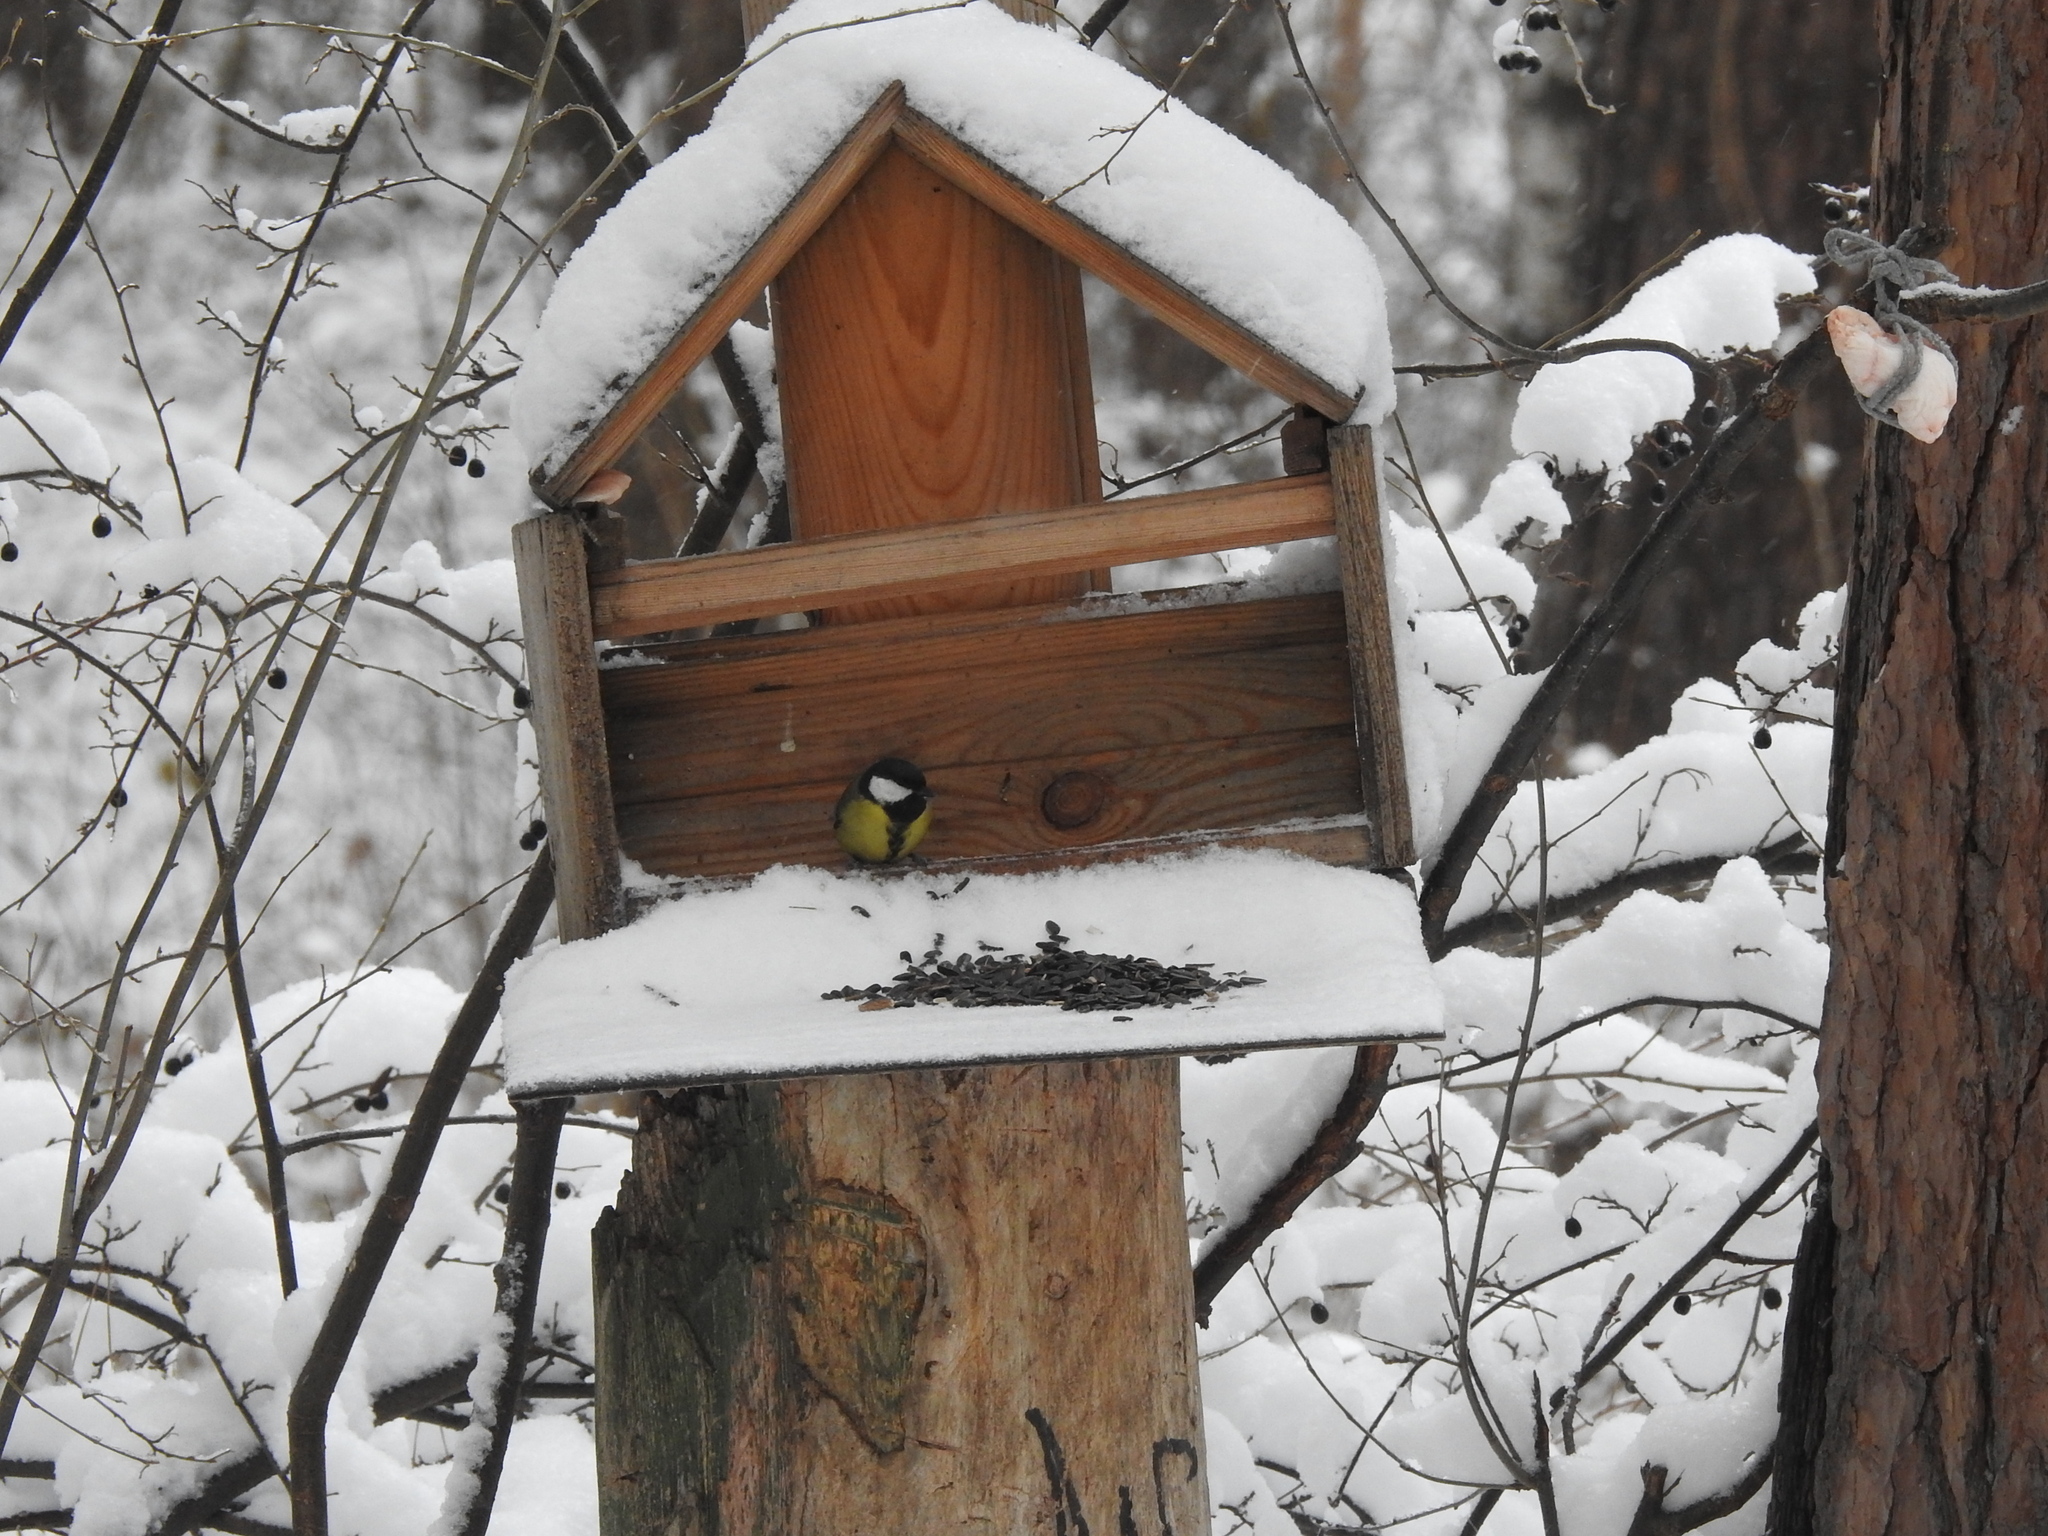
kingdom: Animalia
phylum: Chordata
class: Aves
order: Passeriformes
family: Paridae
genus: Parus
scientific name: Parus major
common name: Great tit
